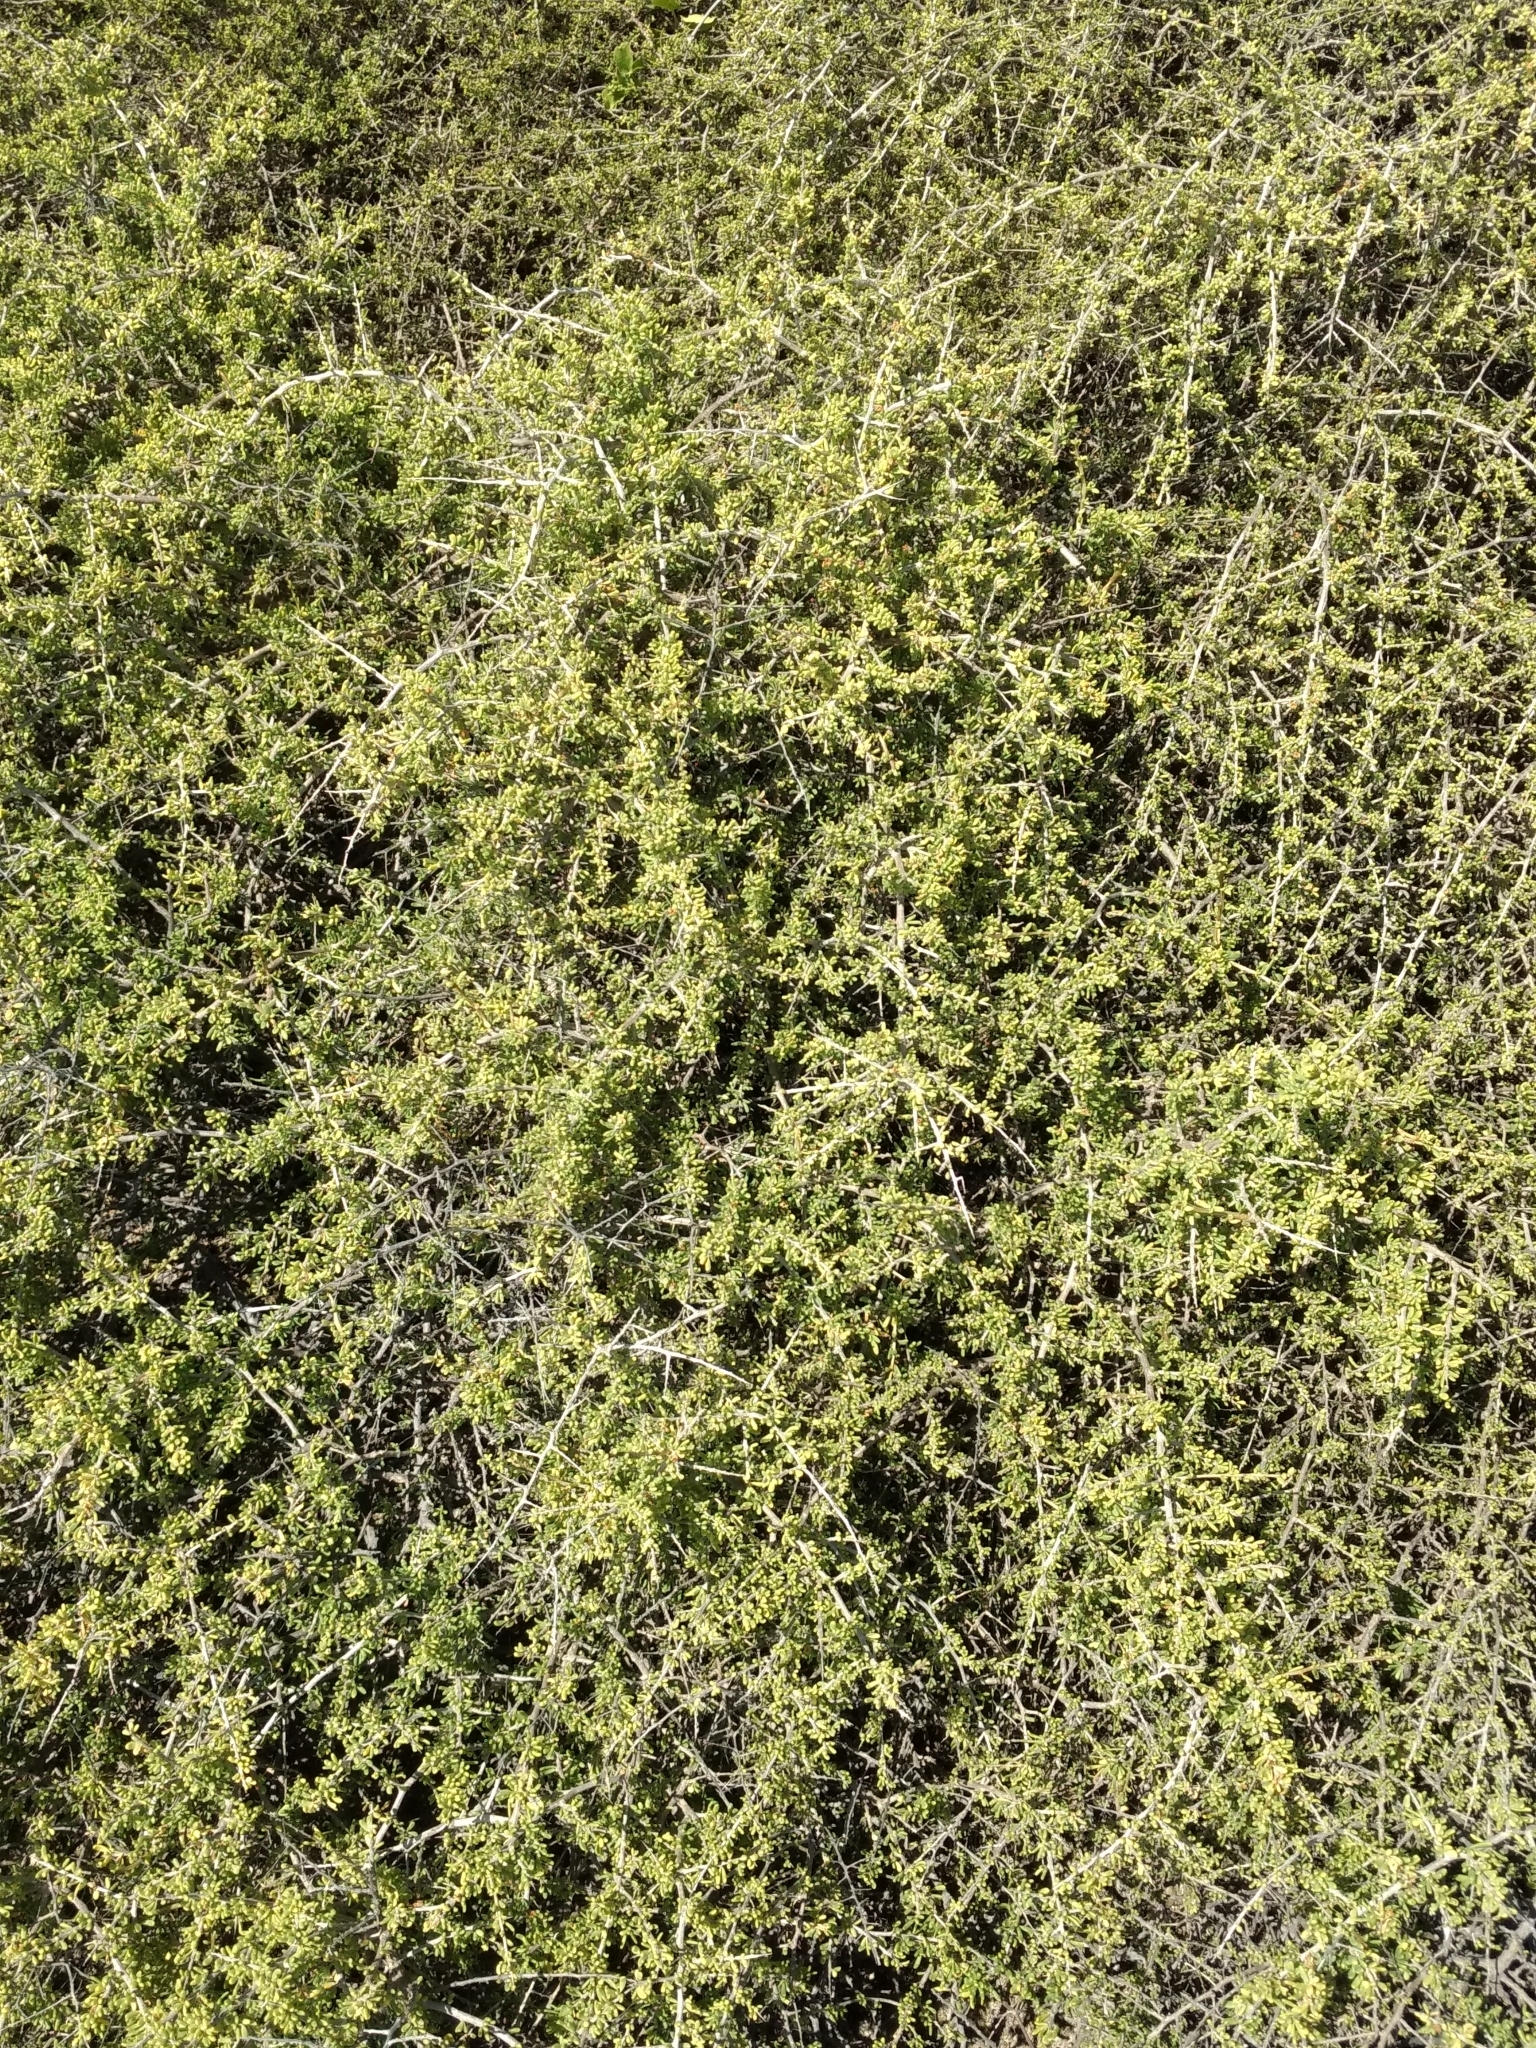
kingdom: Plantae
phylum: Tracheophyta
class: Magnoliopsida
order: Solanales
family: Solanaceae
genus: Lycium
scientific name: Lycium californicum
